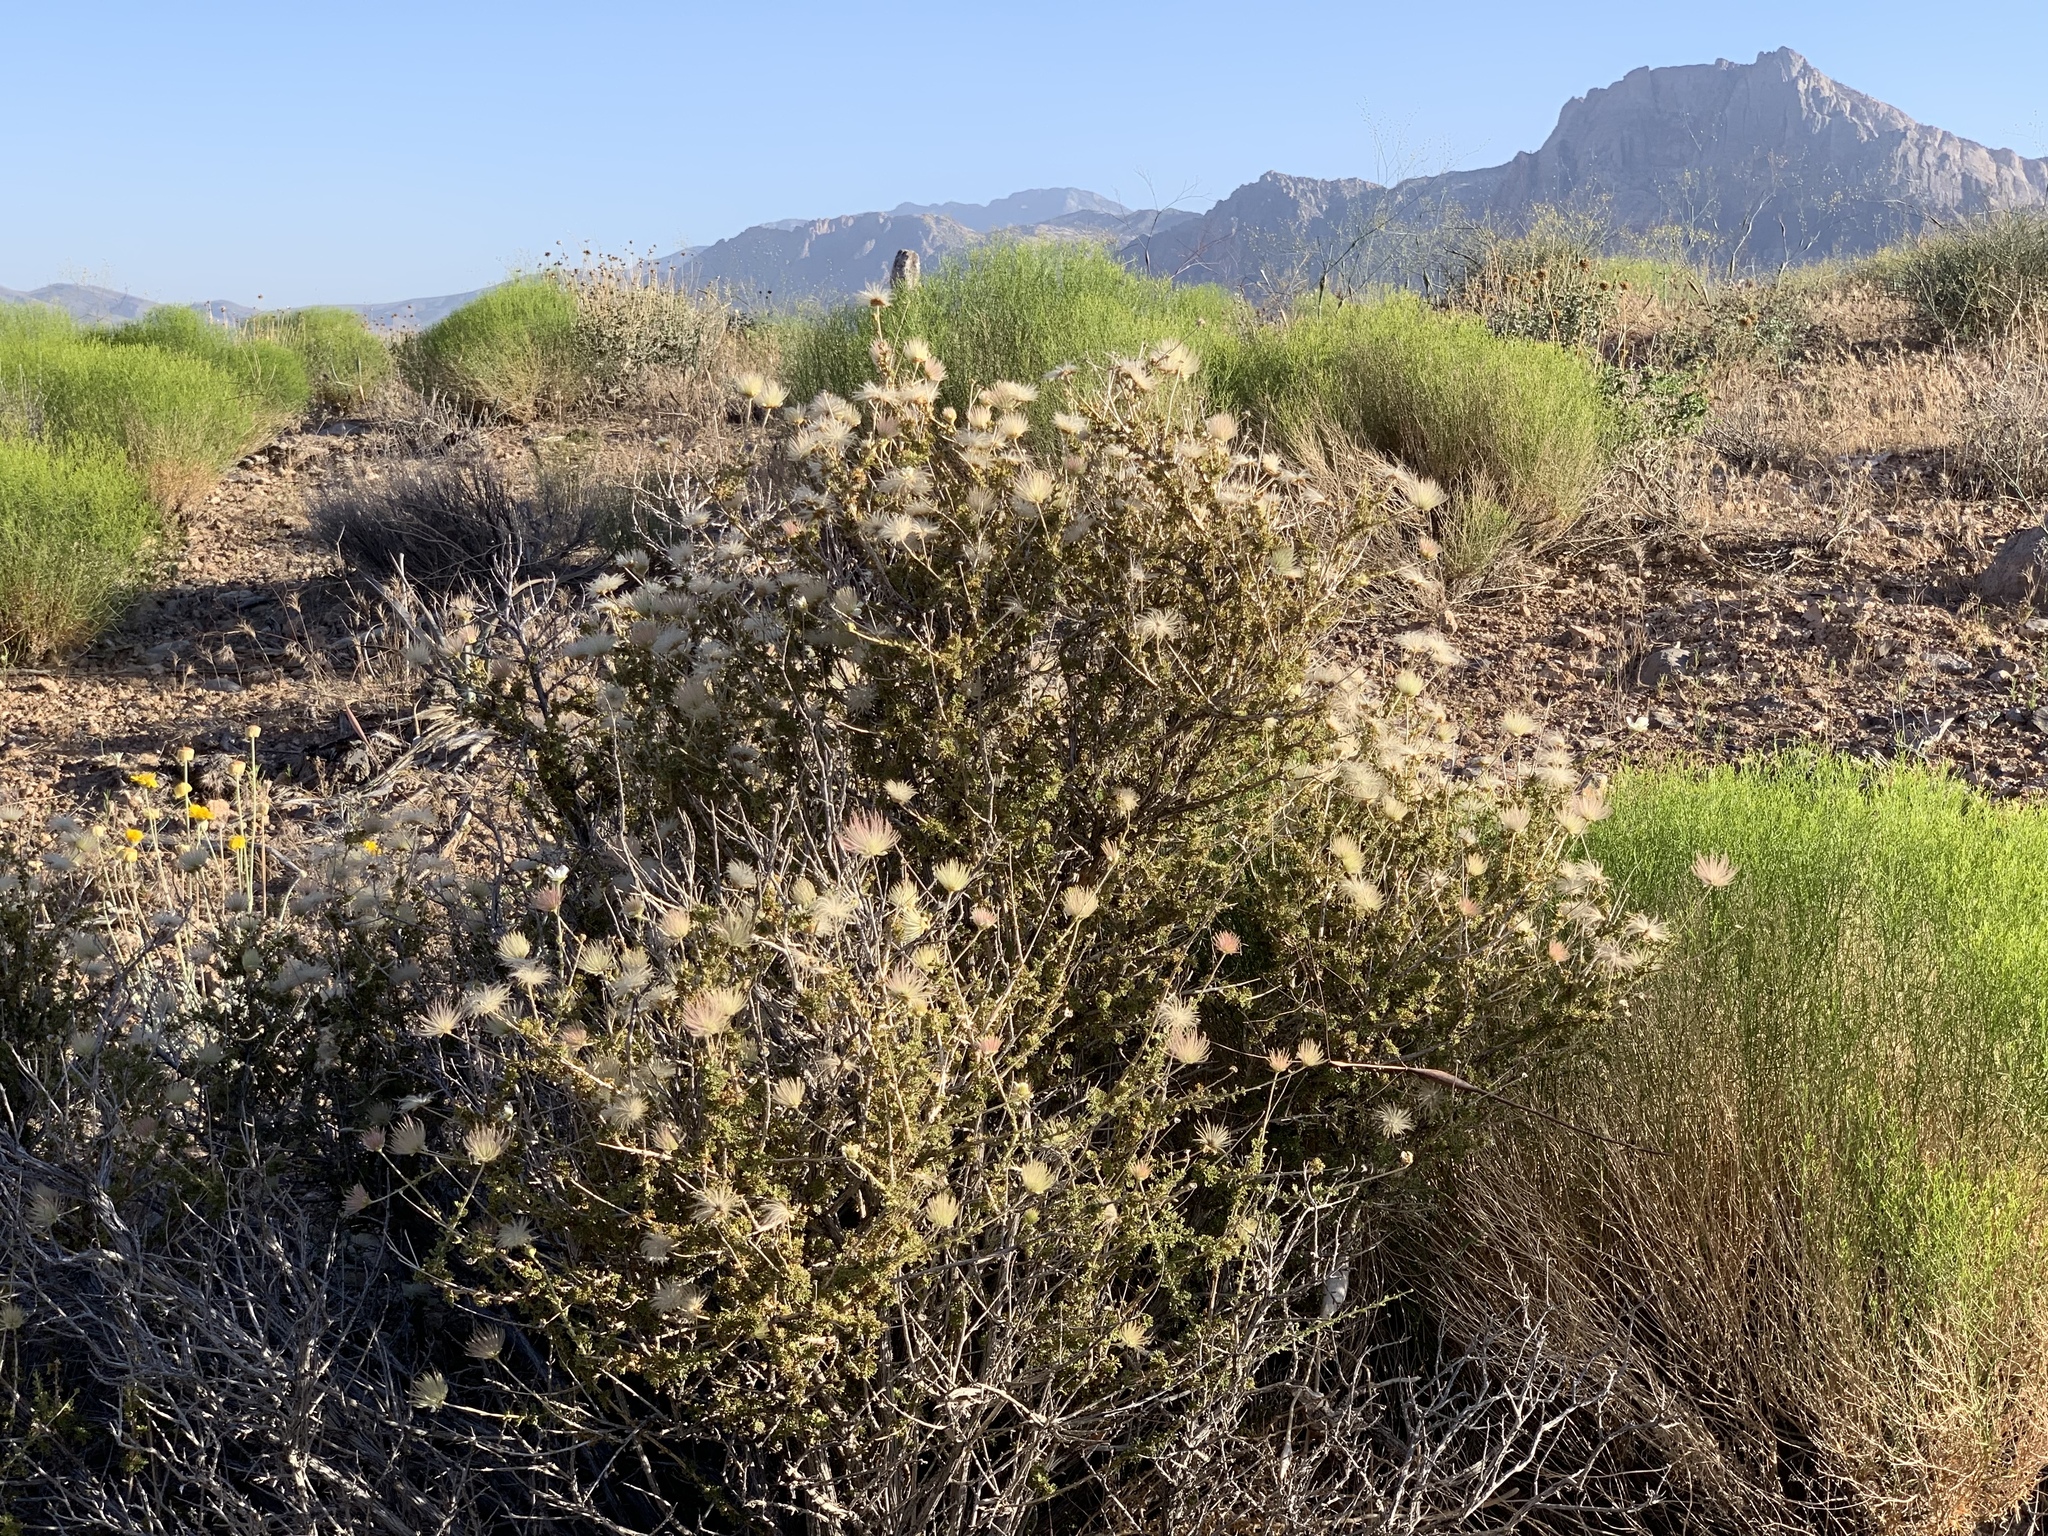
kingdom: Plantae
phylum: Tracheophyta
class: Magnoliopsida
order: Rosales
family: Rosaceae
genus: Fallugia
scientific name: Fallugia paradoxa
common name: Apache-plume
